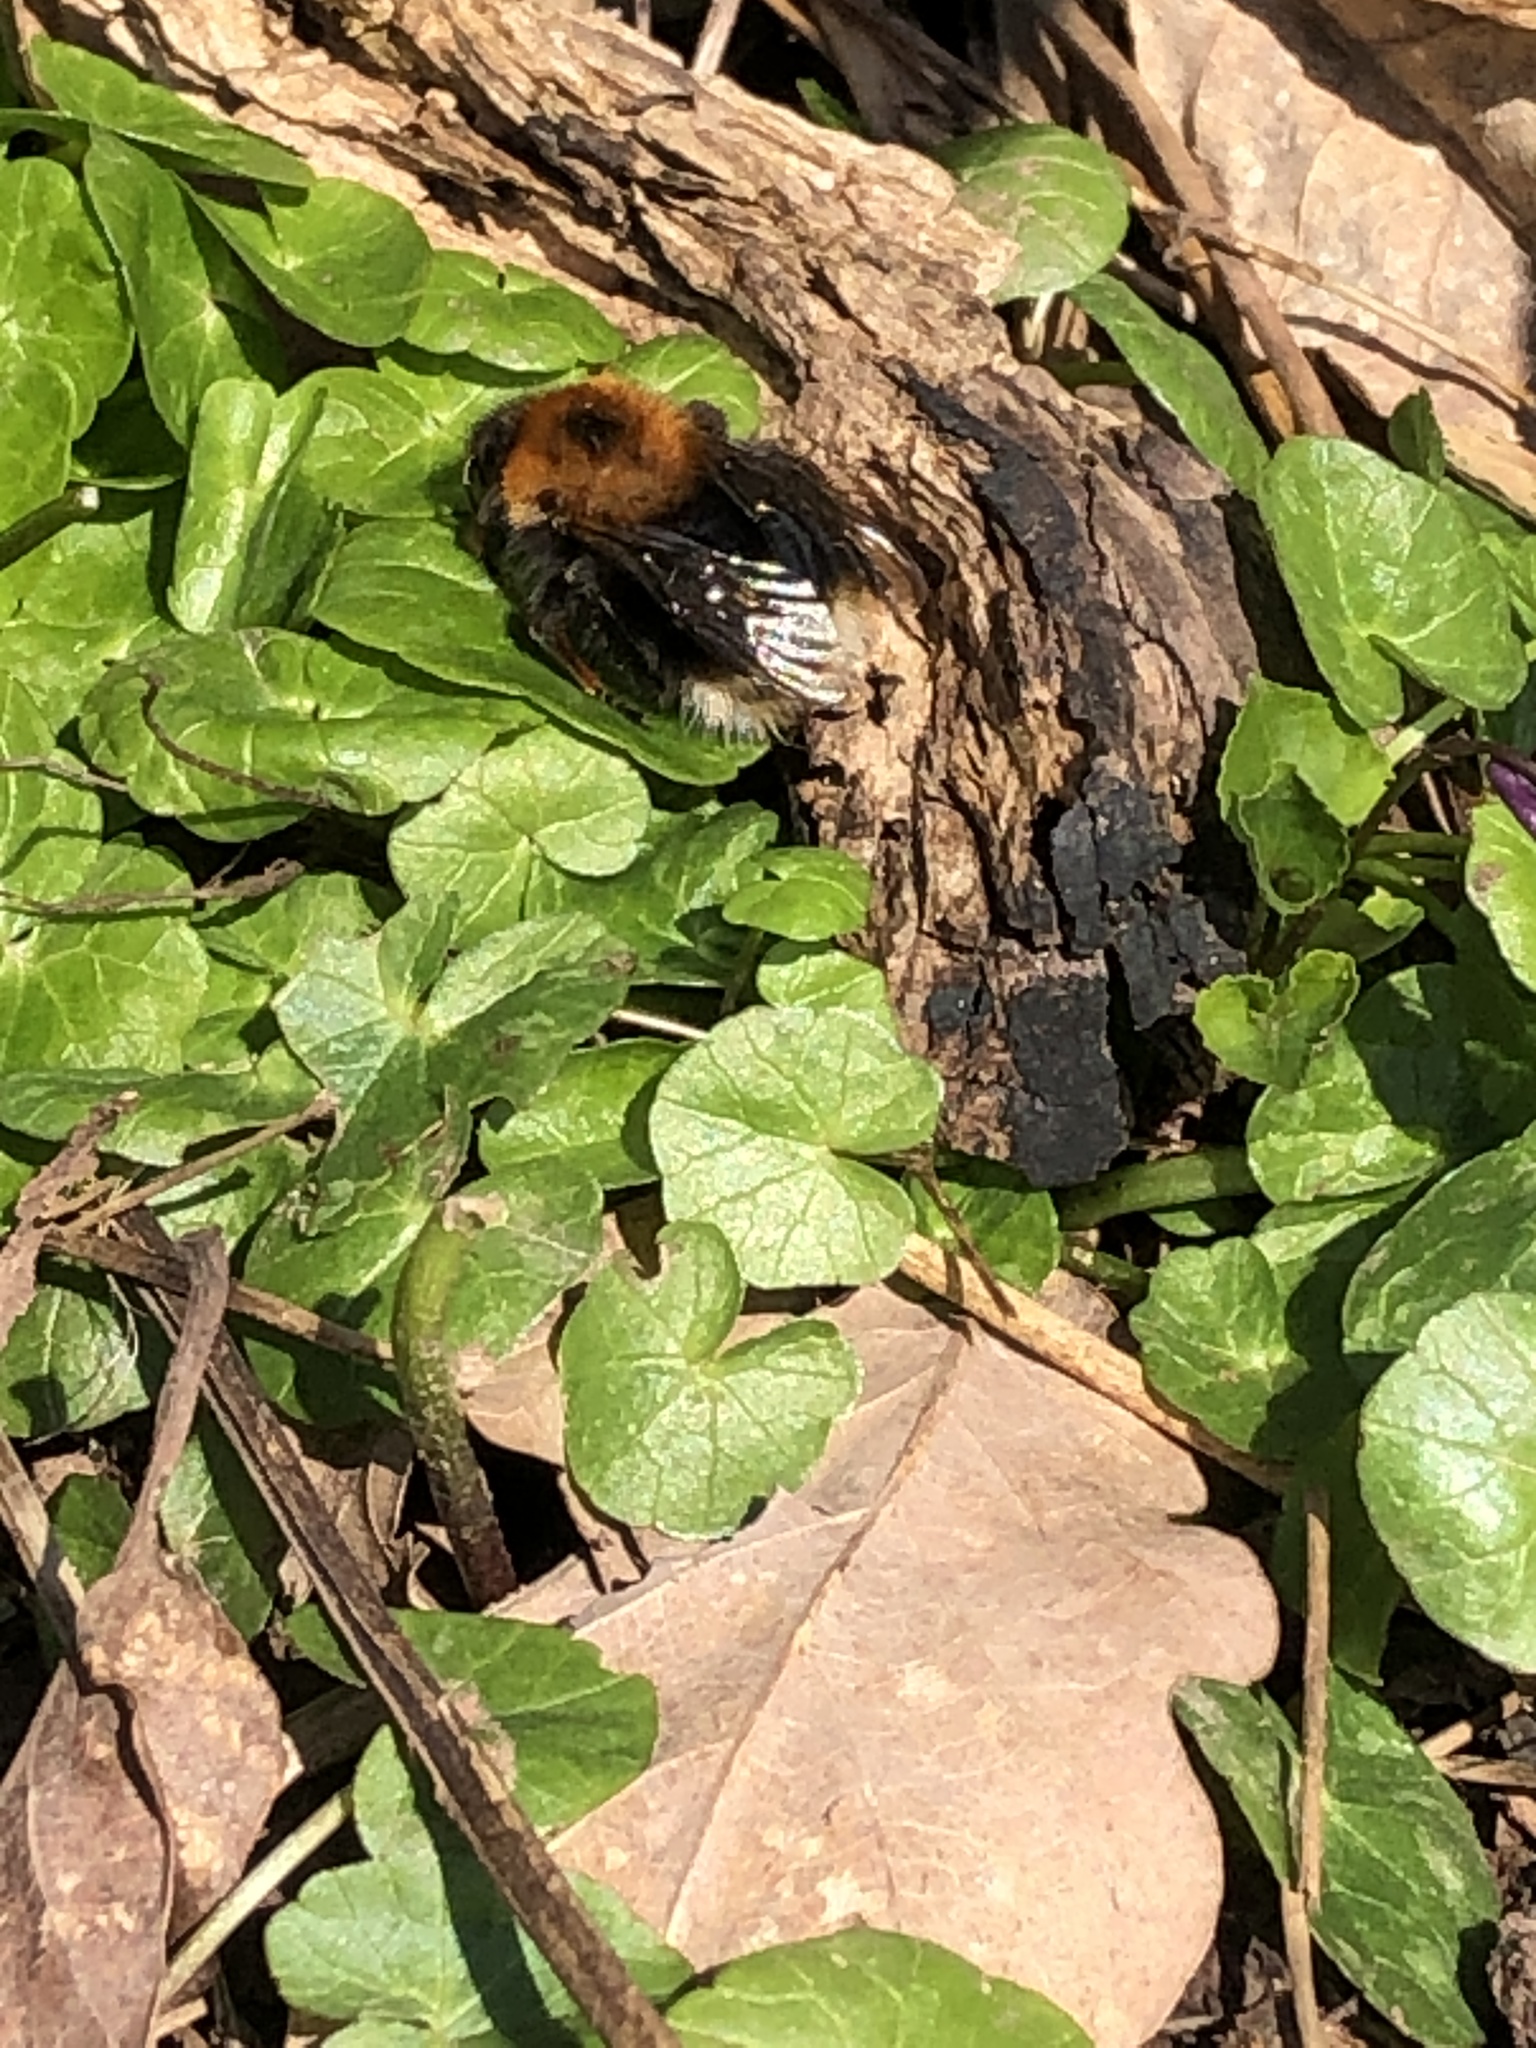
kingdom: Animalia
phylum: Arthropoda
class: Insecta
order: Hymenoptera
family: Apidae
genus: Bombus
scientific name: Bombus hypnorum
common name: New garden bumblebee
